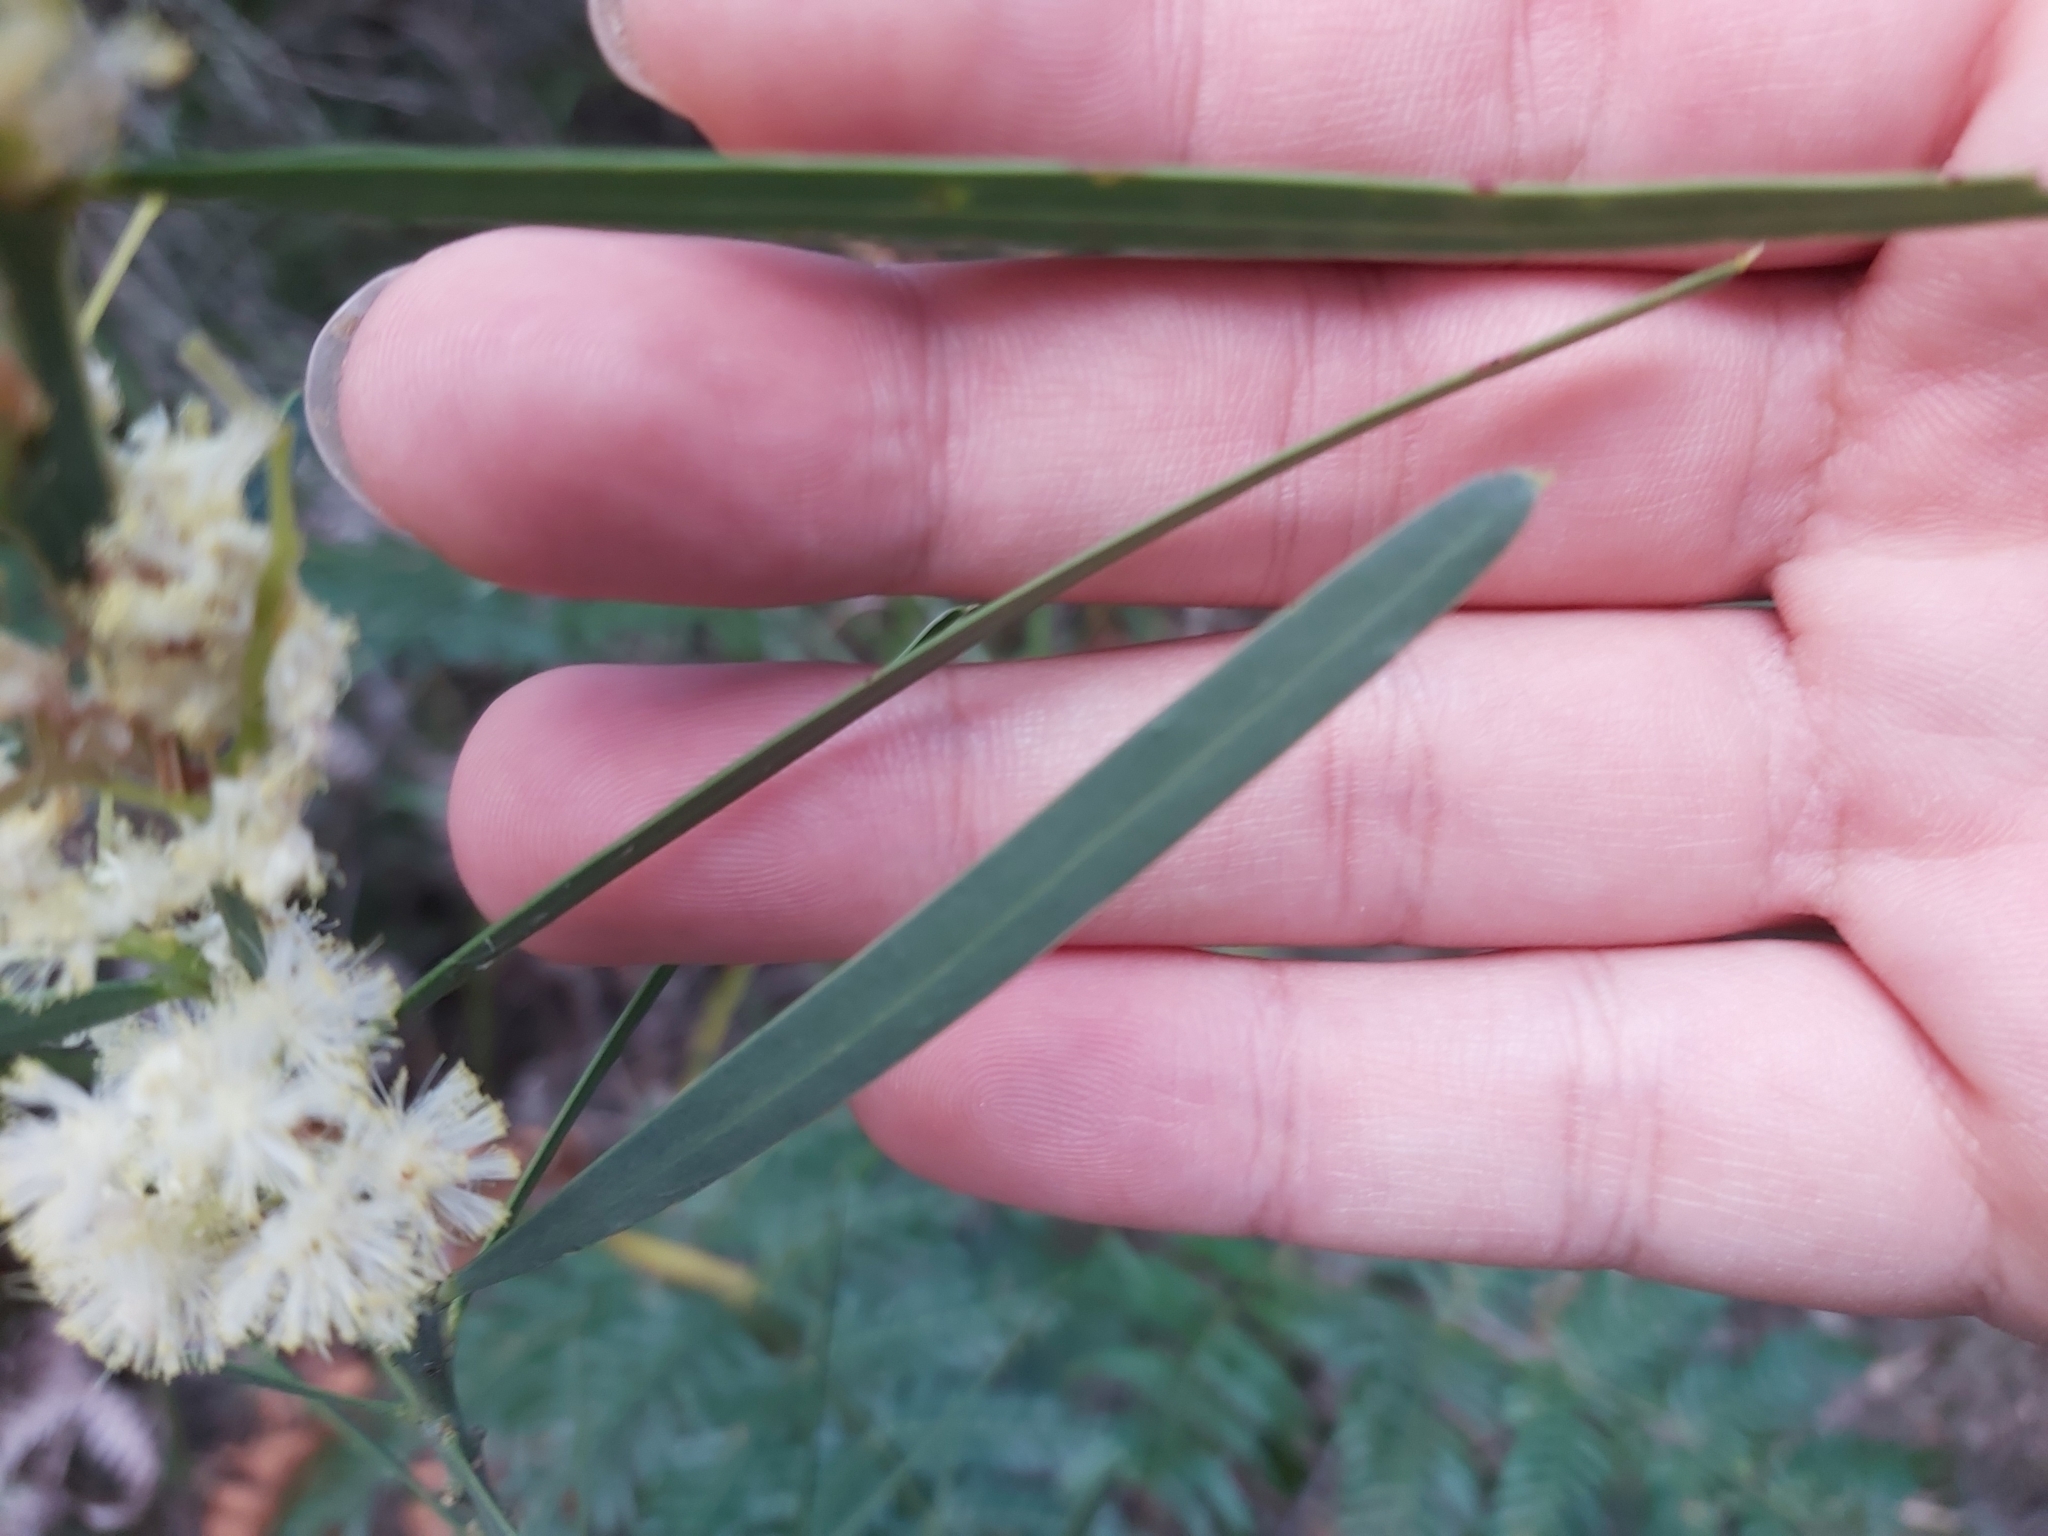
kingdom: Plantae
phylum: Tracheophyta
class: Magnoliopsida
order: Fabales
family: Fabaceae
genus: Acacia
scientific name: Acacia suaveolens
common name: Sweet acacia
